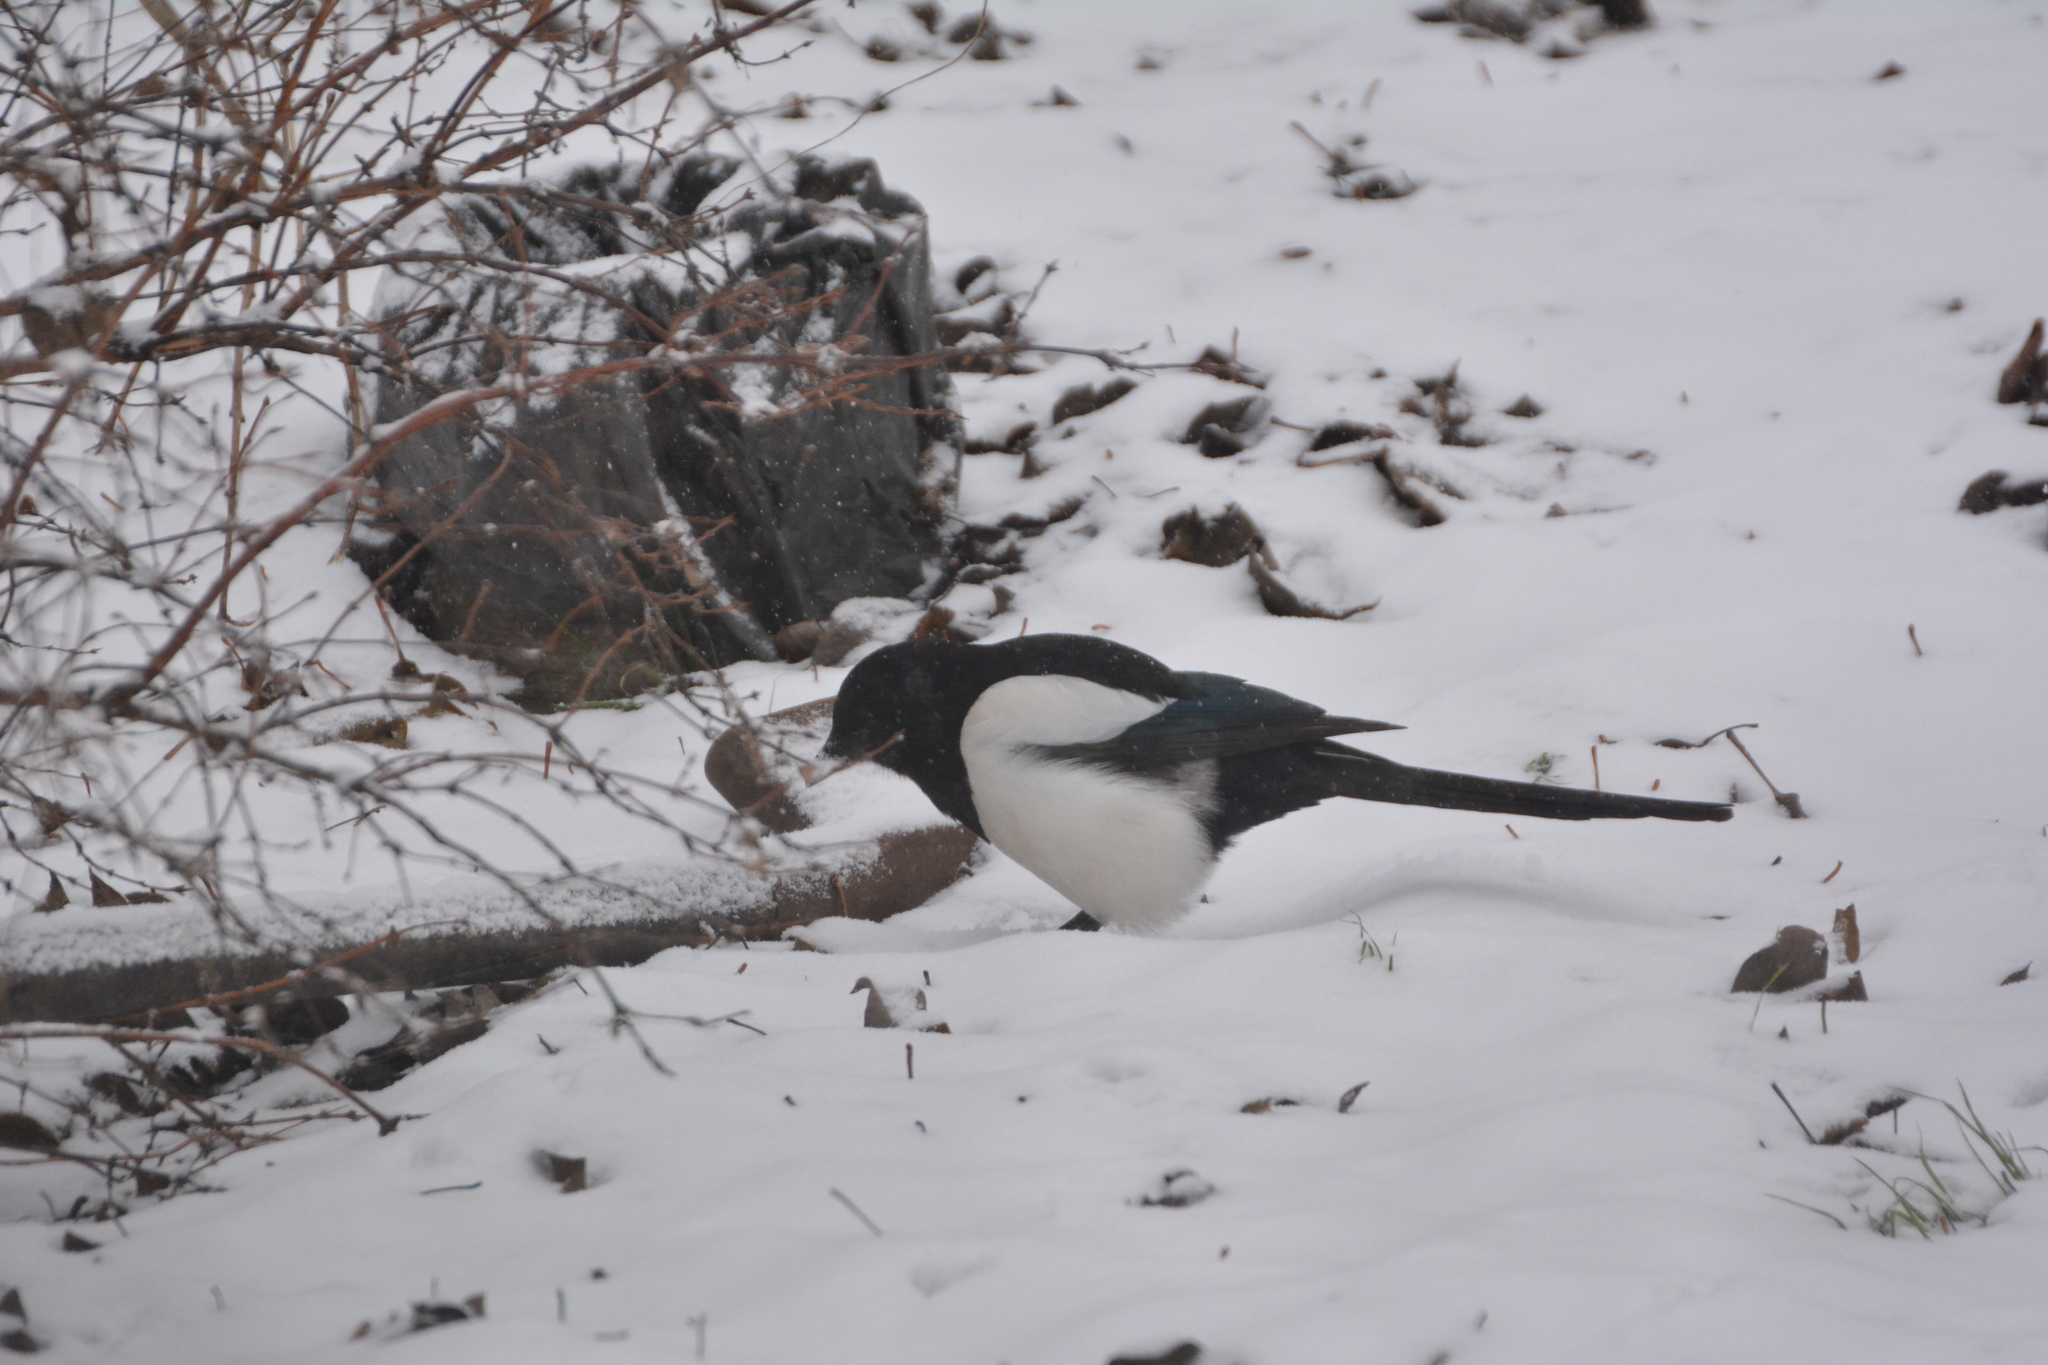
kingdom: Animalia
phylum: Chordata
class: Aves
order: Passeriformes
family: Corvidae
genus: Pica
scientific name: Pica pica
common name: Eurasian magpie
